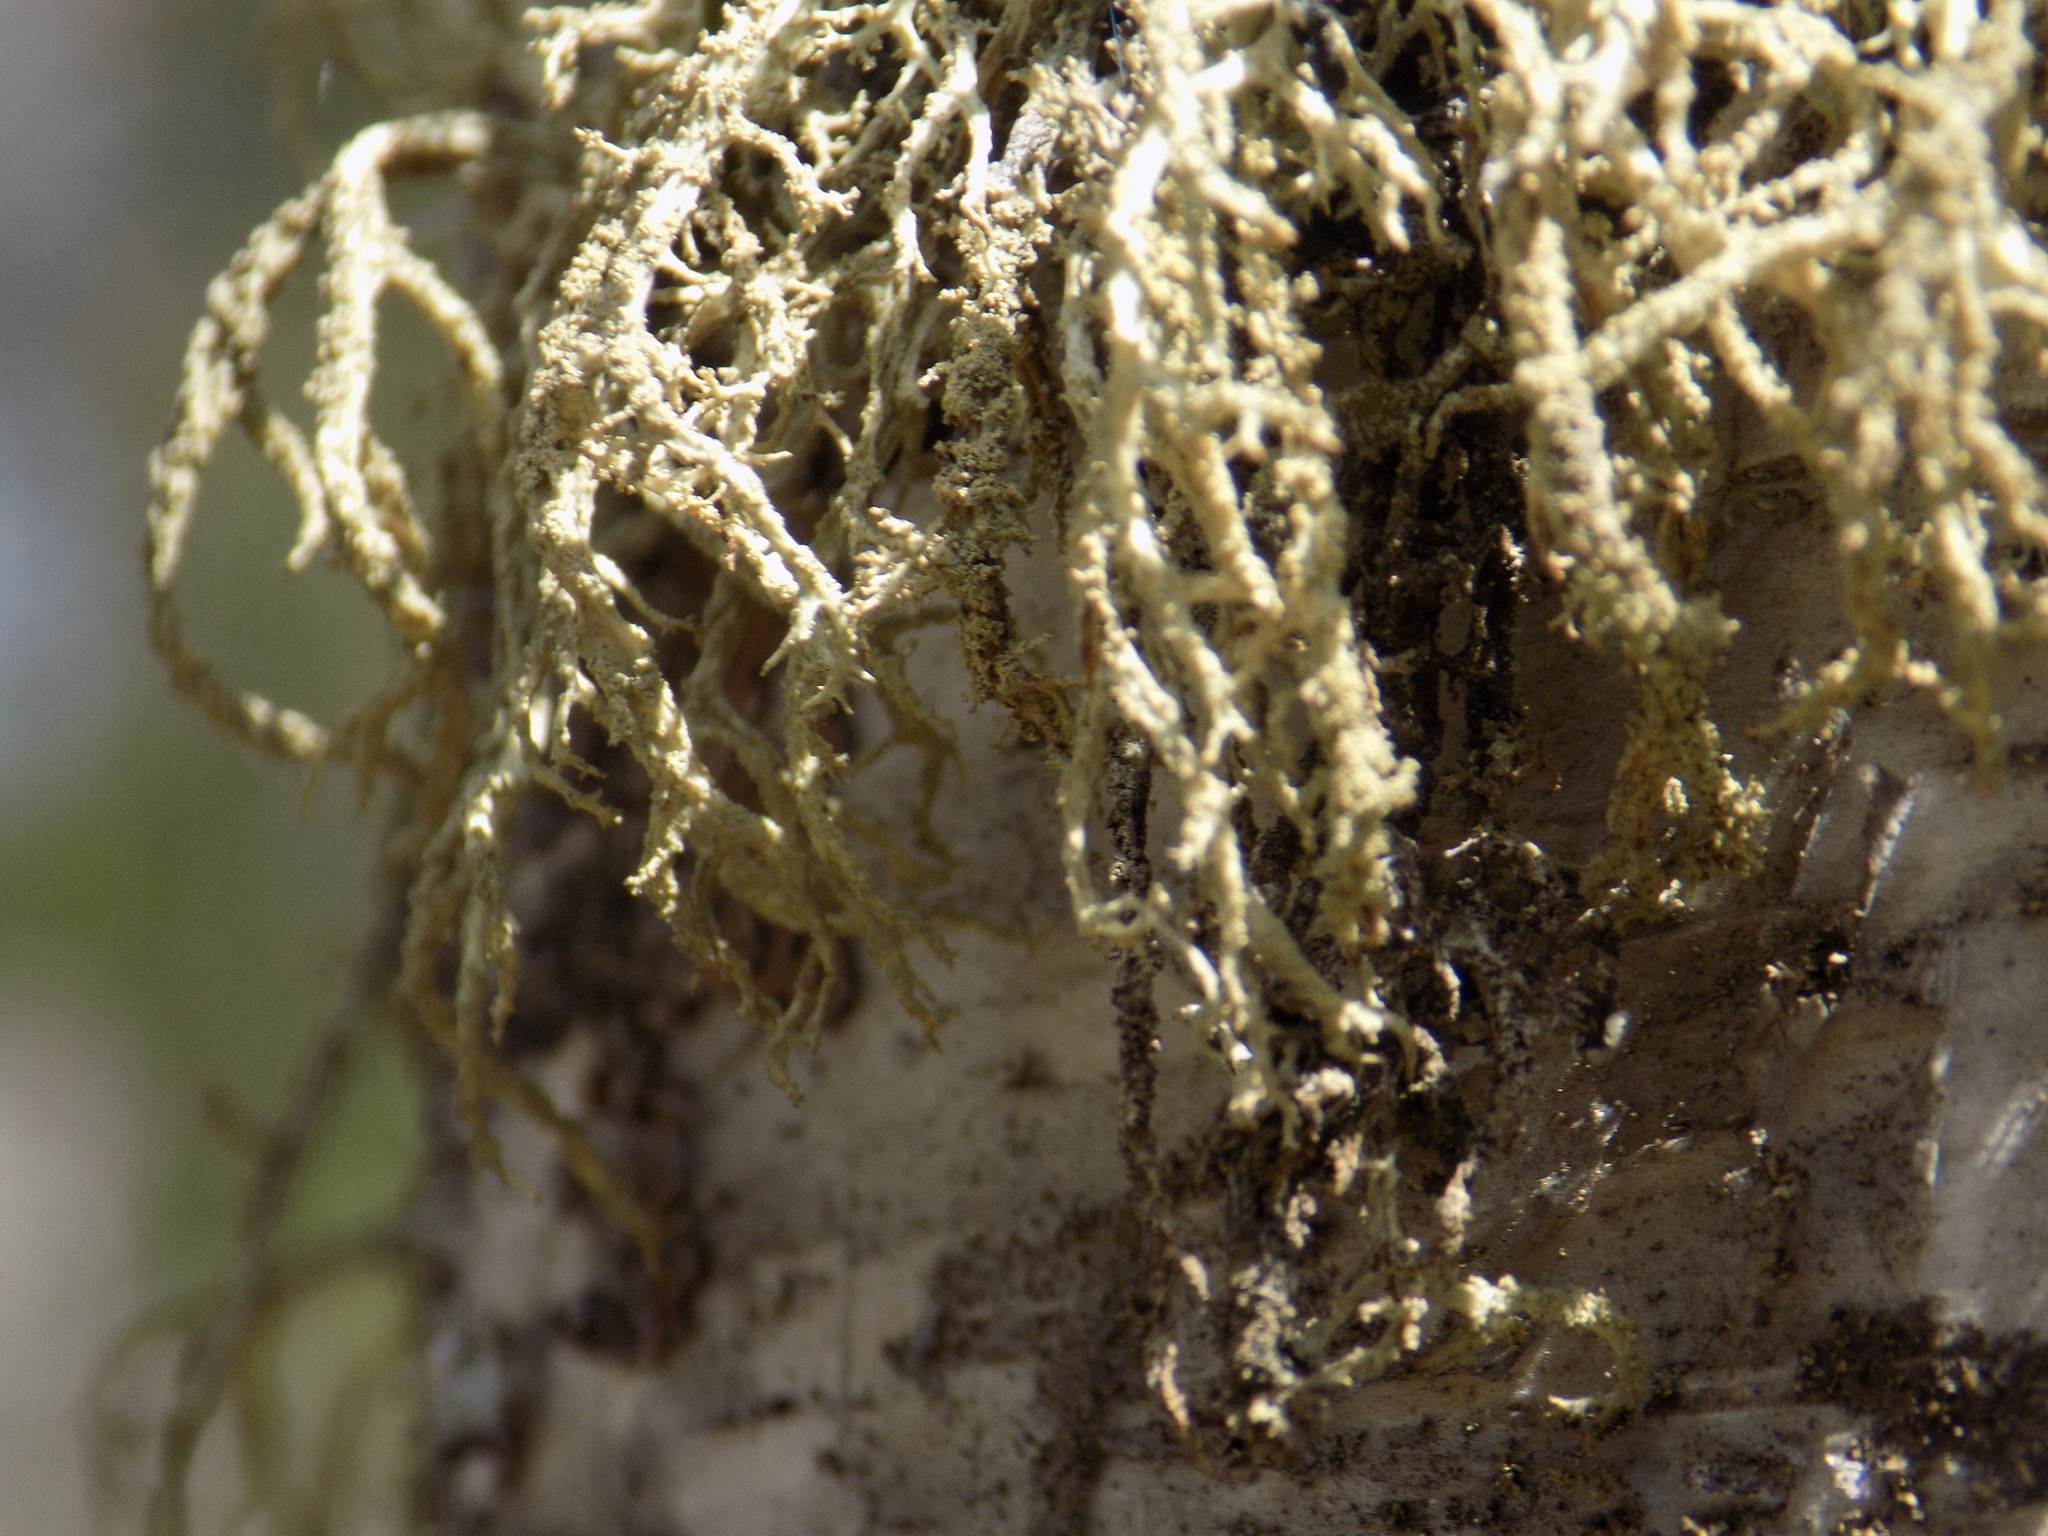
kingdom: Fungi
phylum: Ascomycota
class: Lecanoromycetes
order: Lecanorales
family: Parmeliaceae
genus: Evernia
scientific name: Evernia mesomorpha
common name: Boreal oak moss lichen
